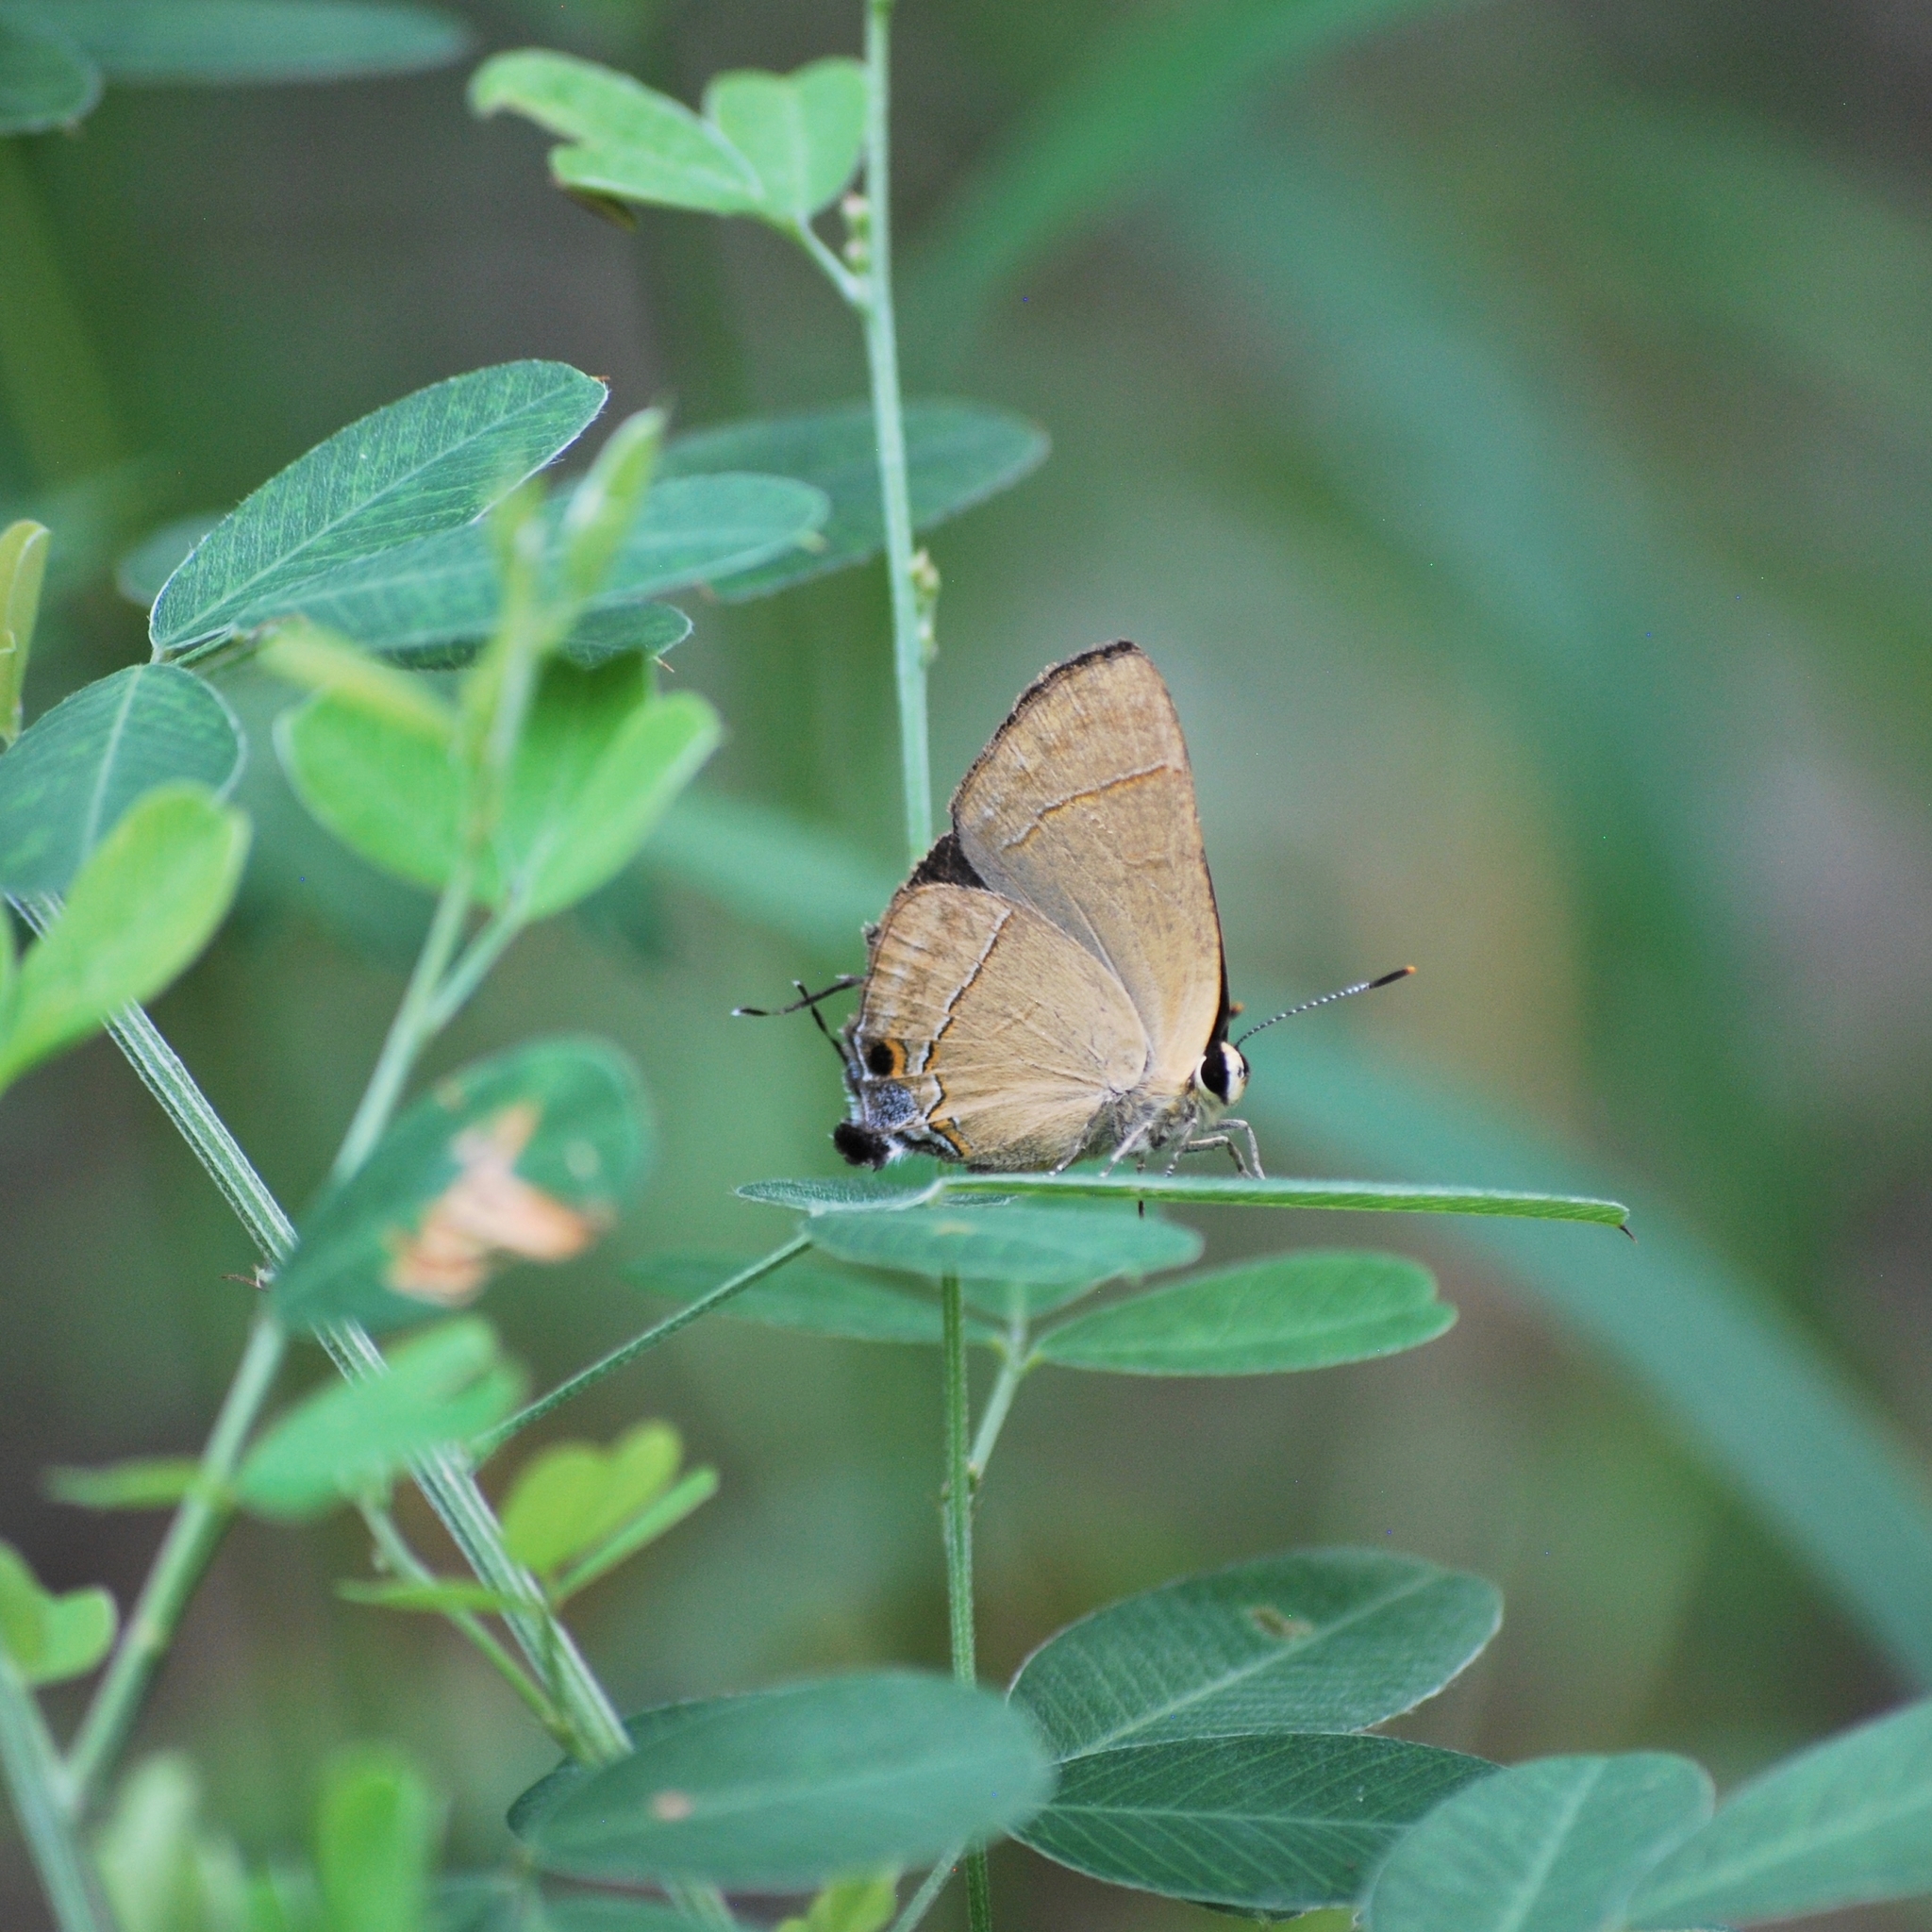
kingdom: Animalia
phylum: Arthropoda
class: Insecta
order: Lepidoptera
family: Lycaenidae
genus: Rapala
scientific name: Rapala nissa
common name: Common flash
